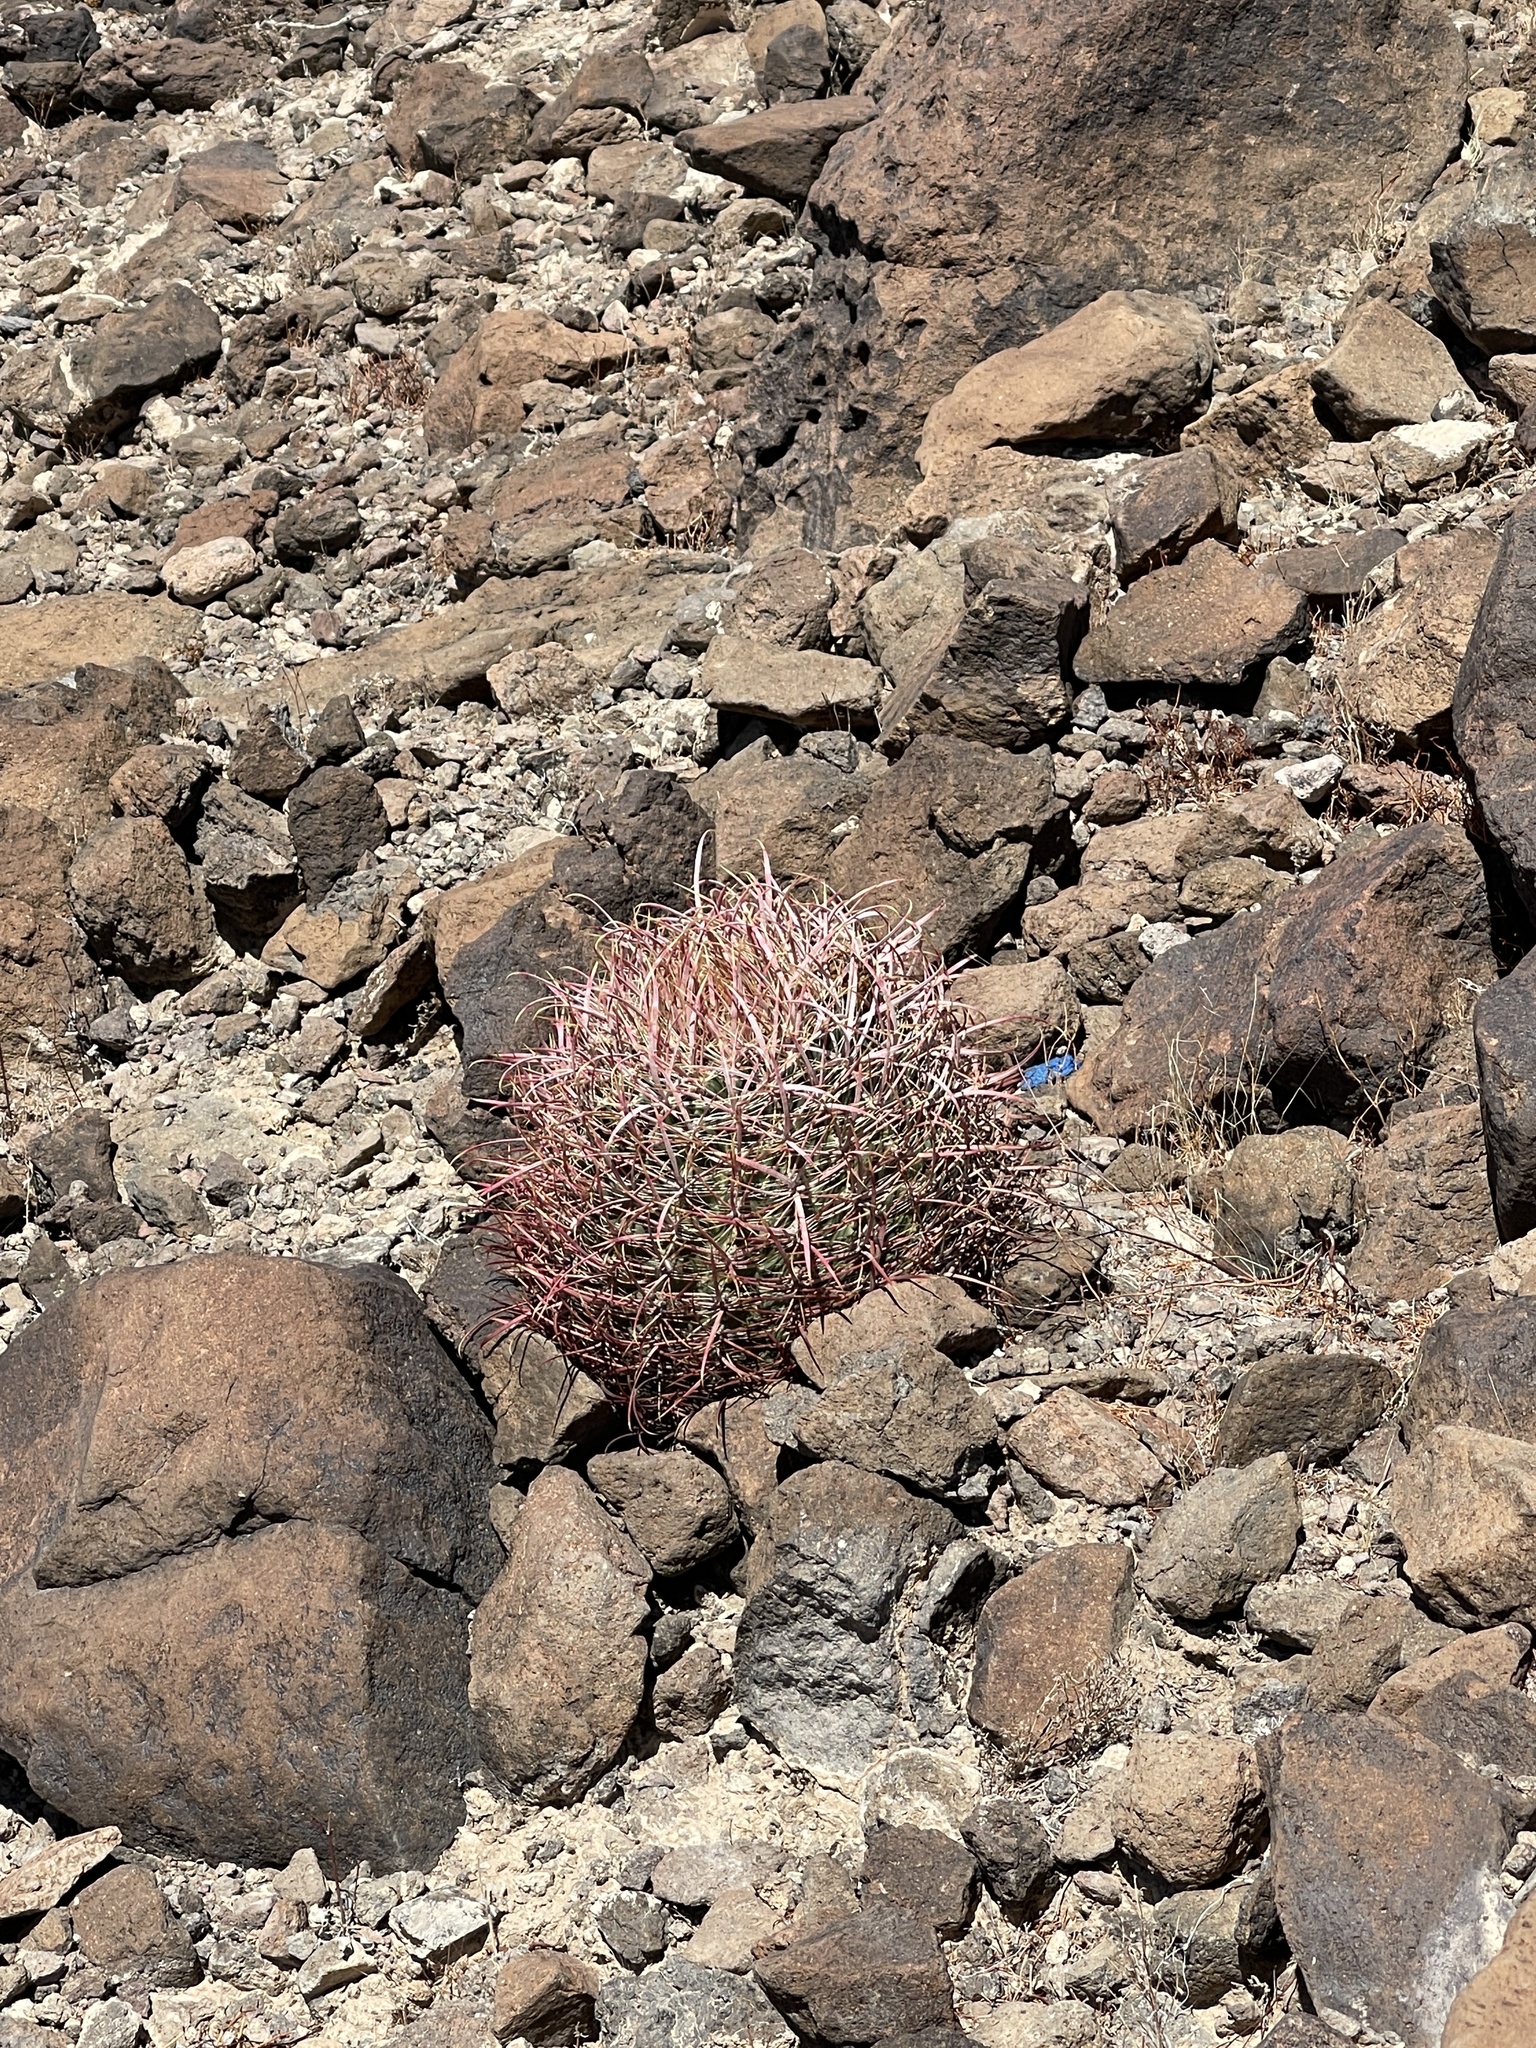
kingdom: Plantae
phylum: Tracheophyta
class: Magnoliopsida
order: Caryophyllales
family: Cactaceae
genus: Ferocactus
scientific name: Ferocactus cylindraceus
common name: California barrel cactus
